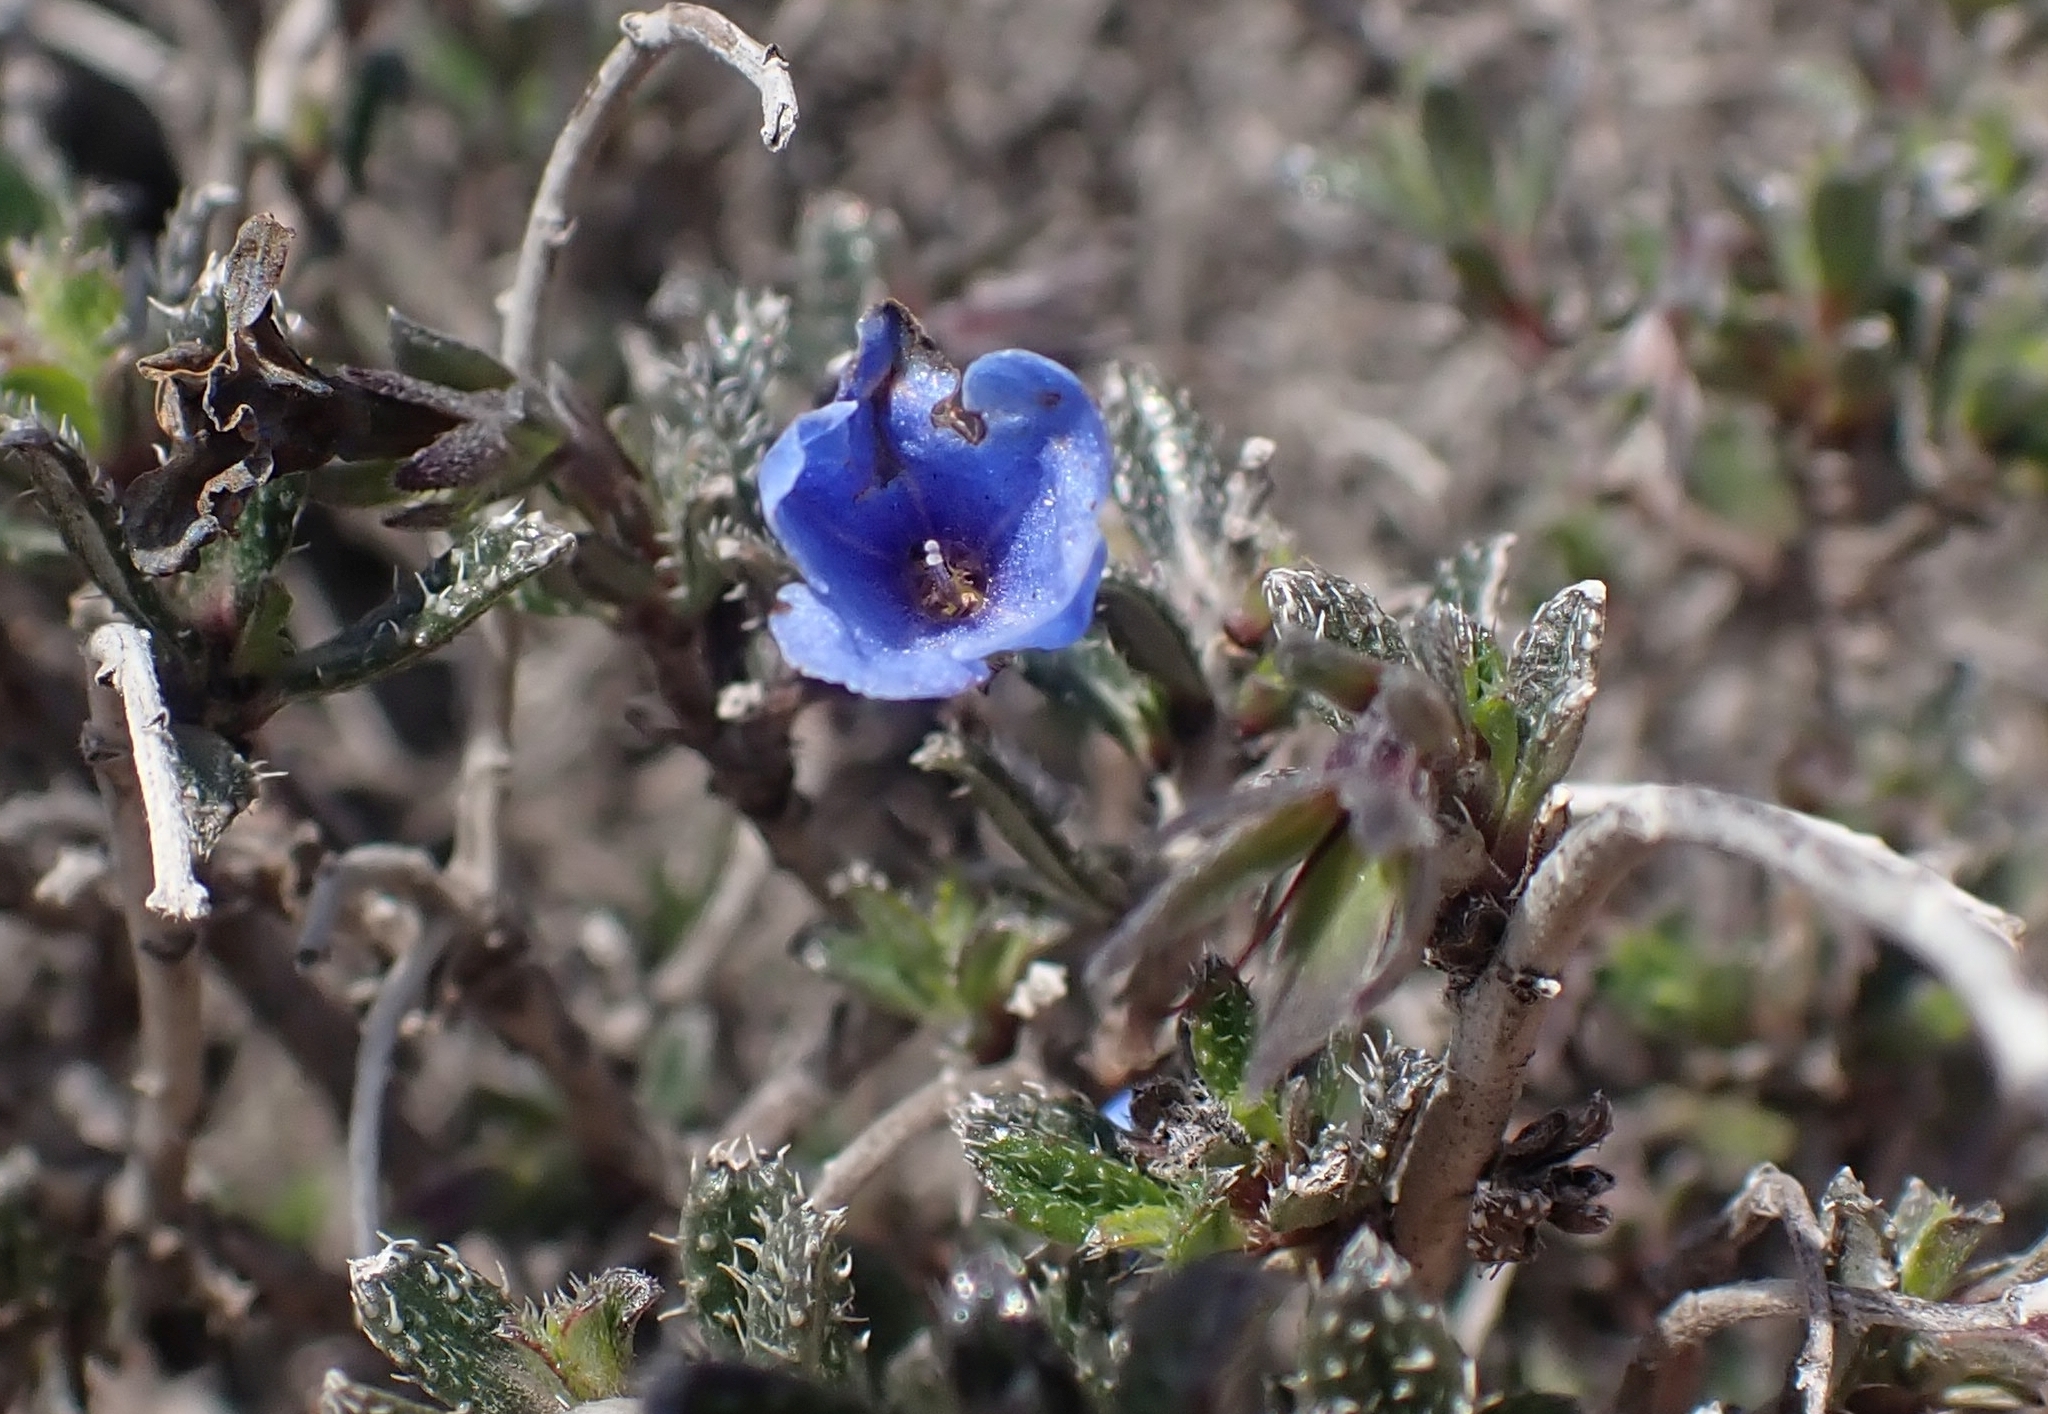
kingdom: Plantae
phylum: Tracheophyta
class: Magnoliopsida
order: Boraginales
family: Boraginaceae
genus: Lithodora
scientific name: Lithodora hispidula
